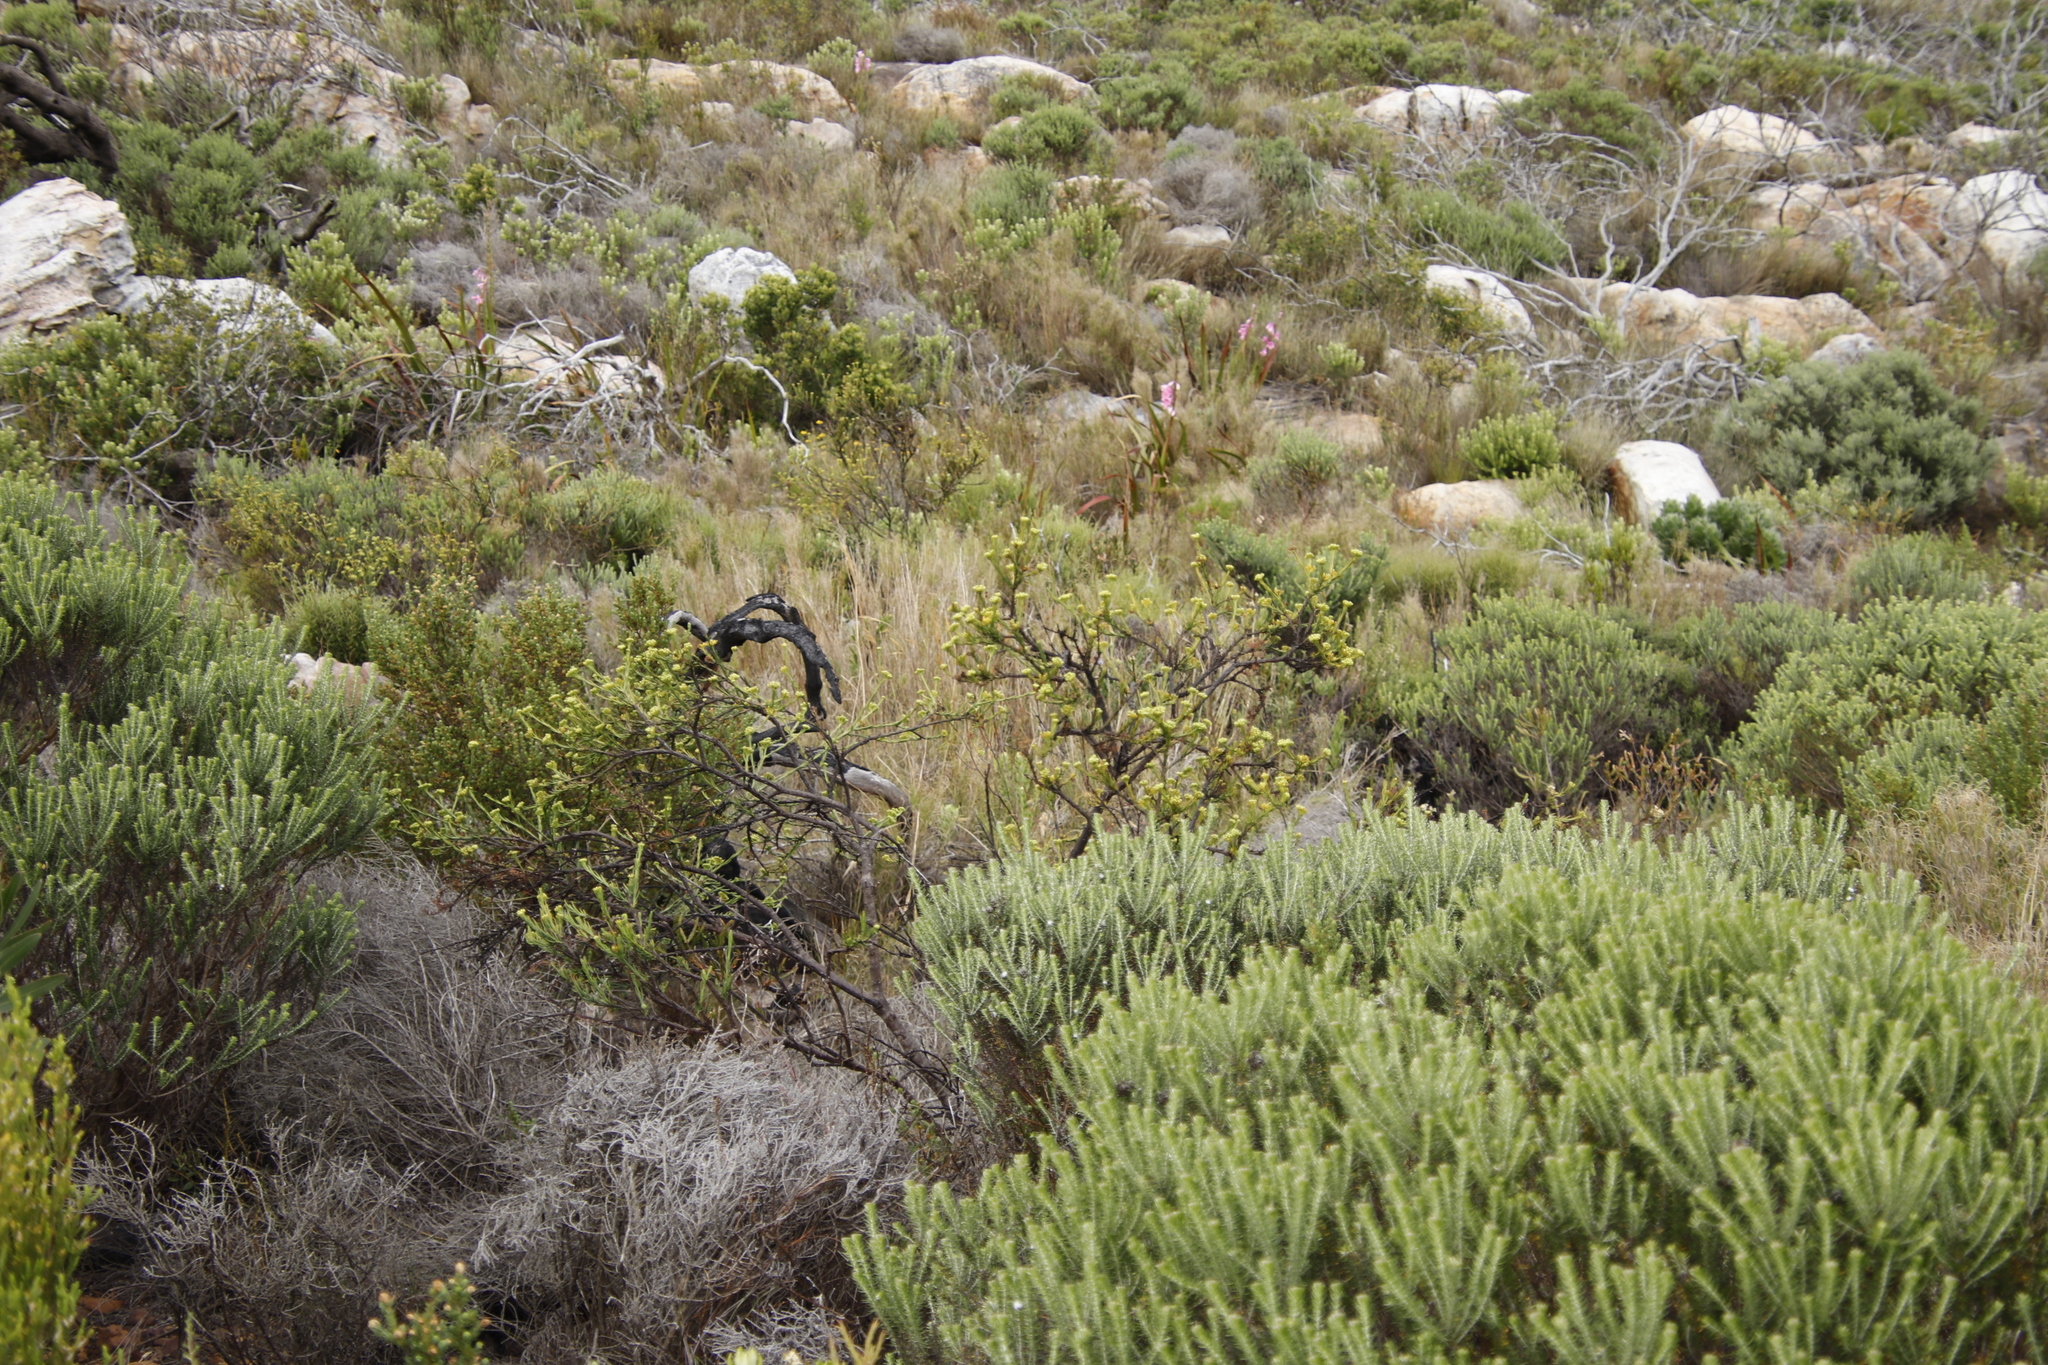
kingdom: Plantae
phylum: Tracheophyta
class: Magnoliopsida
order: Santalales
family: Thesiaceae
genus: Thesium
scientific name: Thesium strictum
